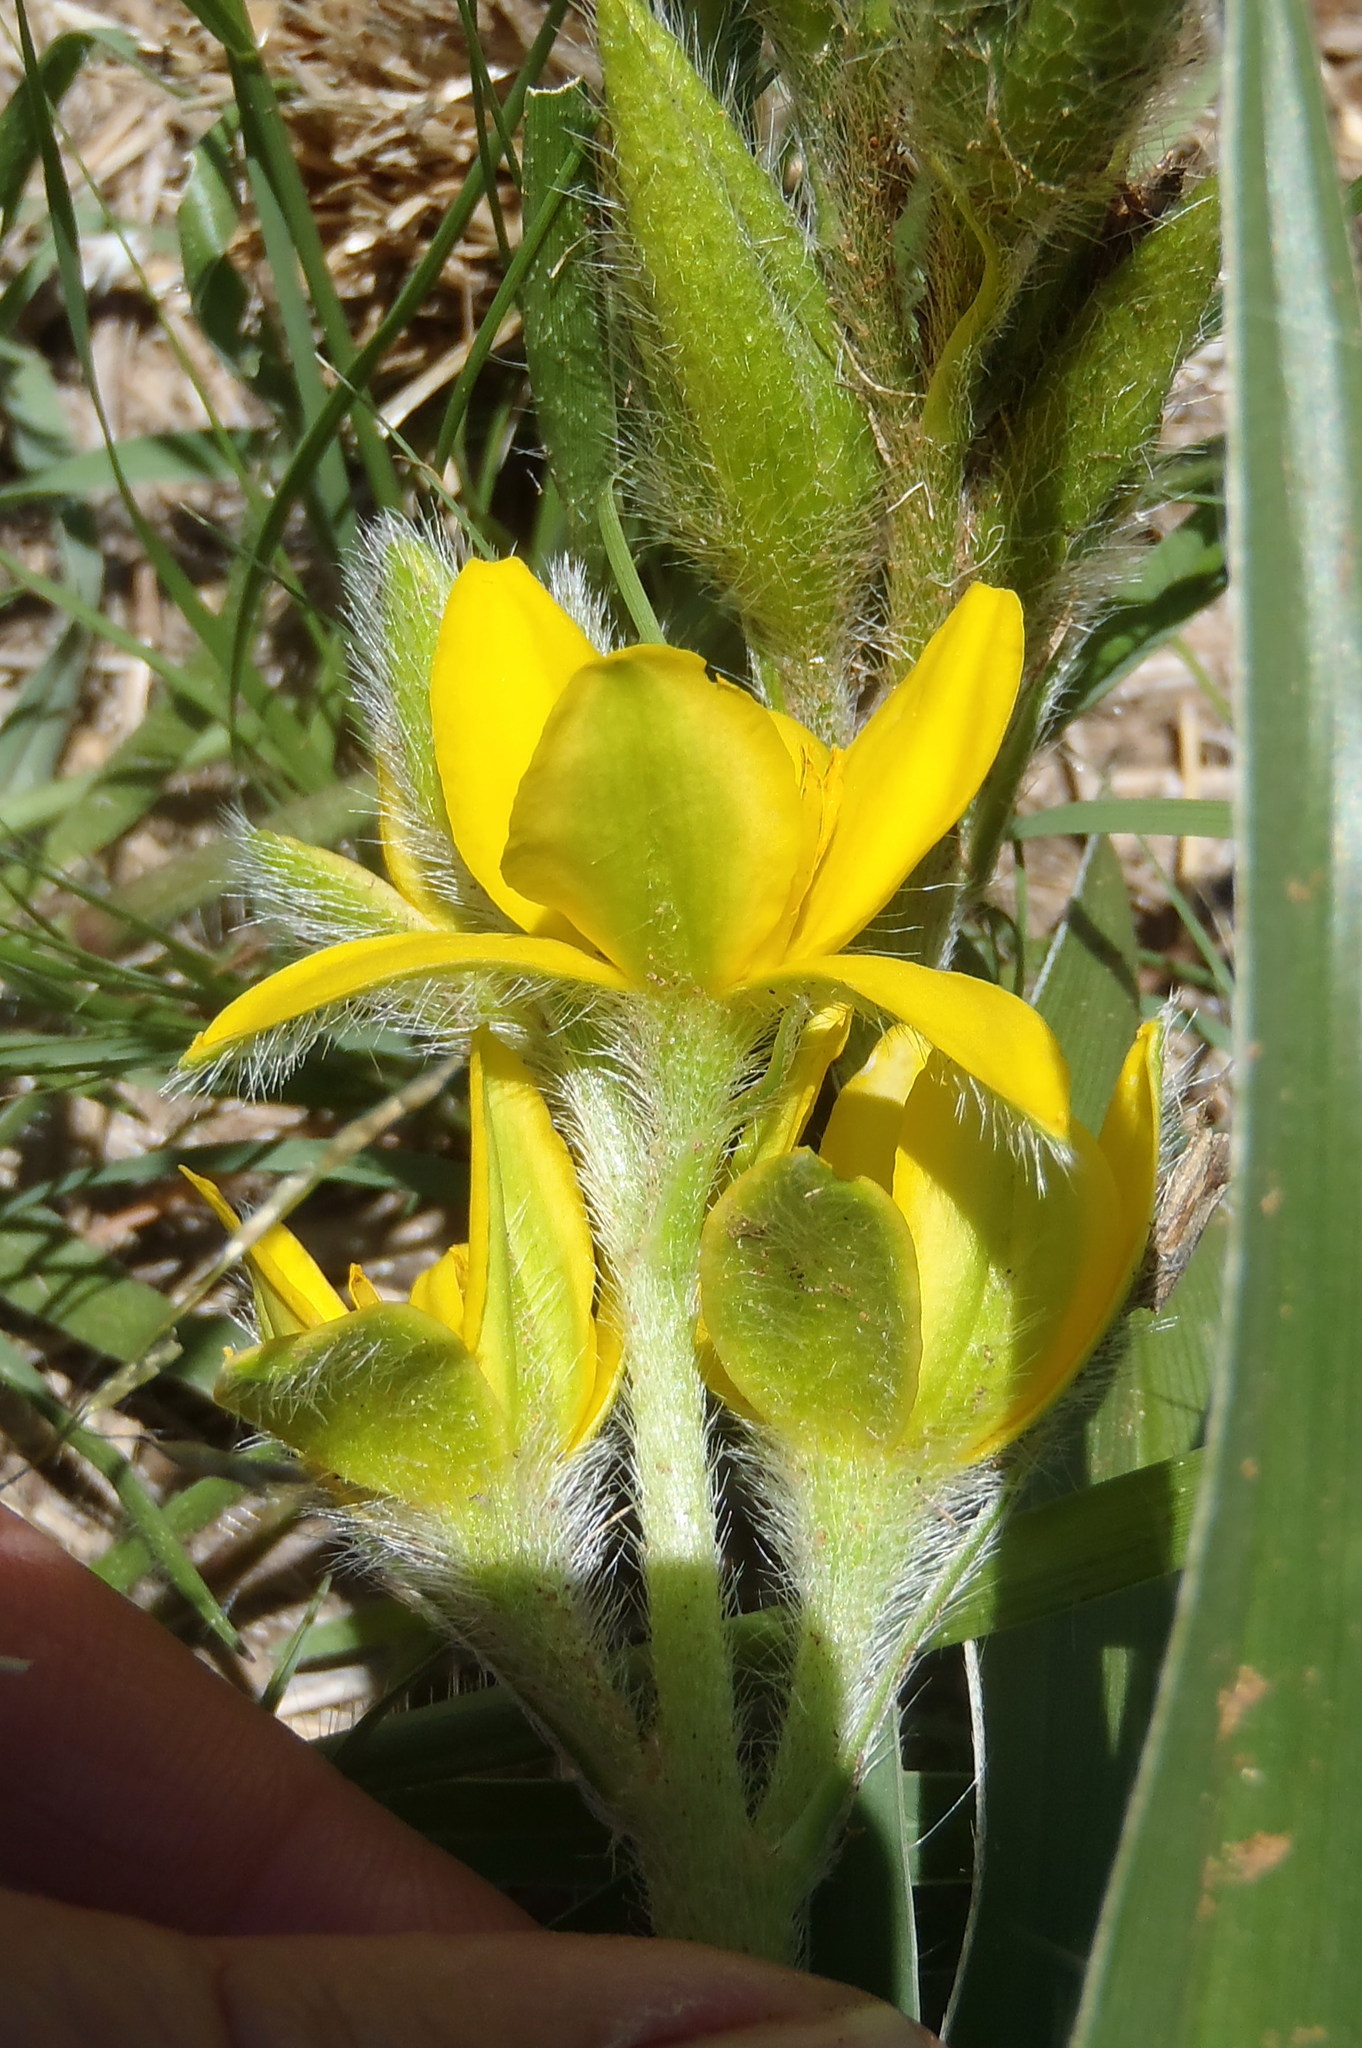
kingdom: Plantae
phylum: Tracheophyta
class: Liliopsida
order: Asparagales
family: Hypoxidaceae
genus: Hypoxis
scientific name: Hypoxis hemerocallidea
